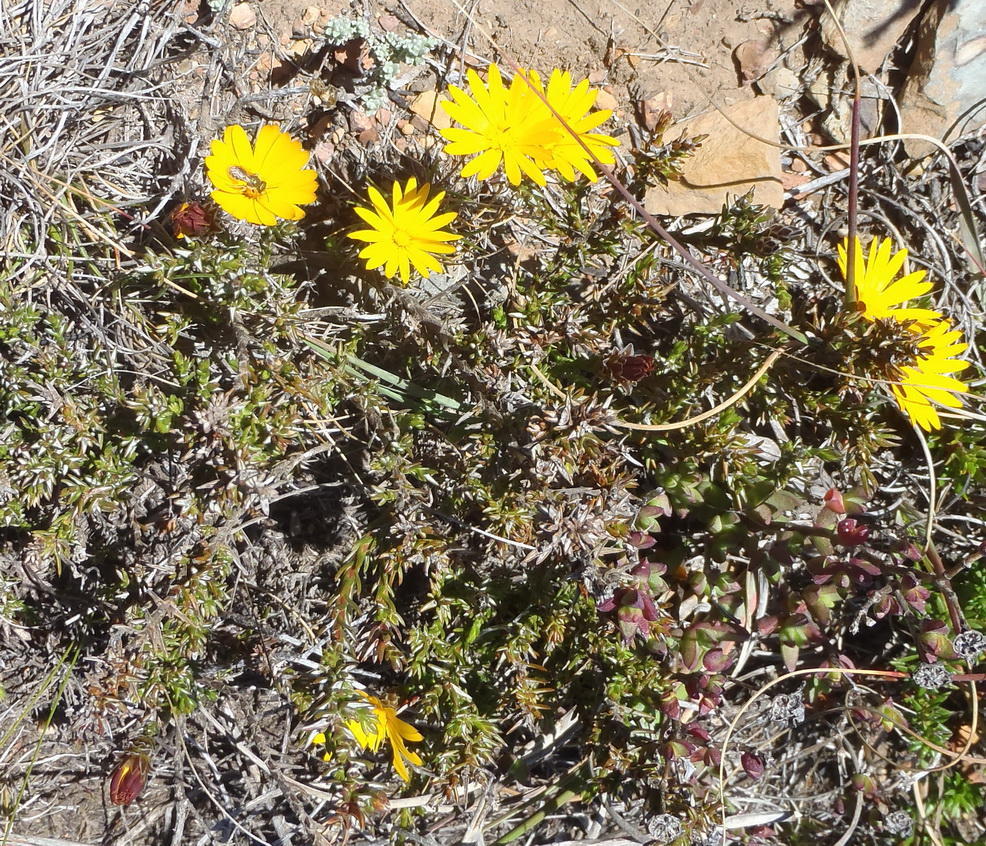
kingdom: Plantae
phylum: Tracheophyta
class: Magnoliopsida
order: Asterales
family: Asteraceae
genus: Oedera
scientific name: Oedera decussata
